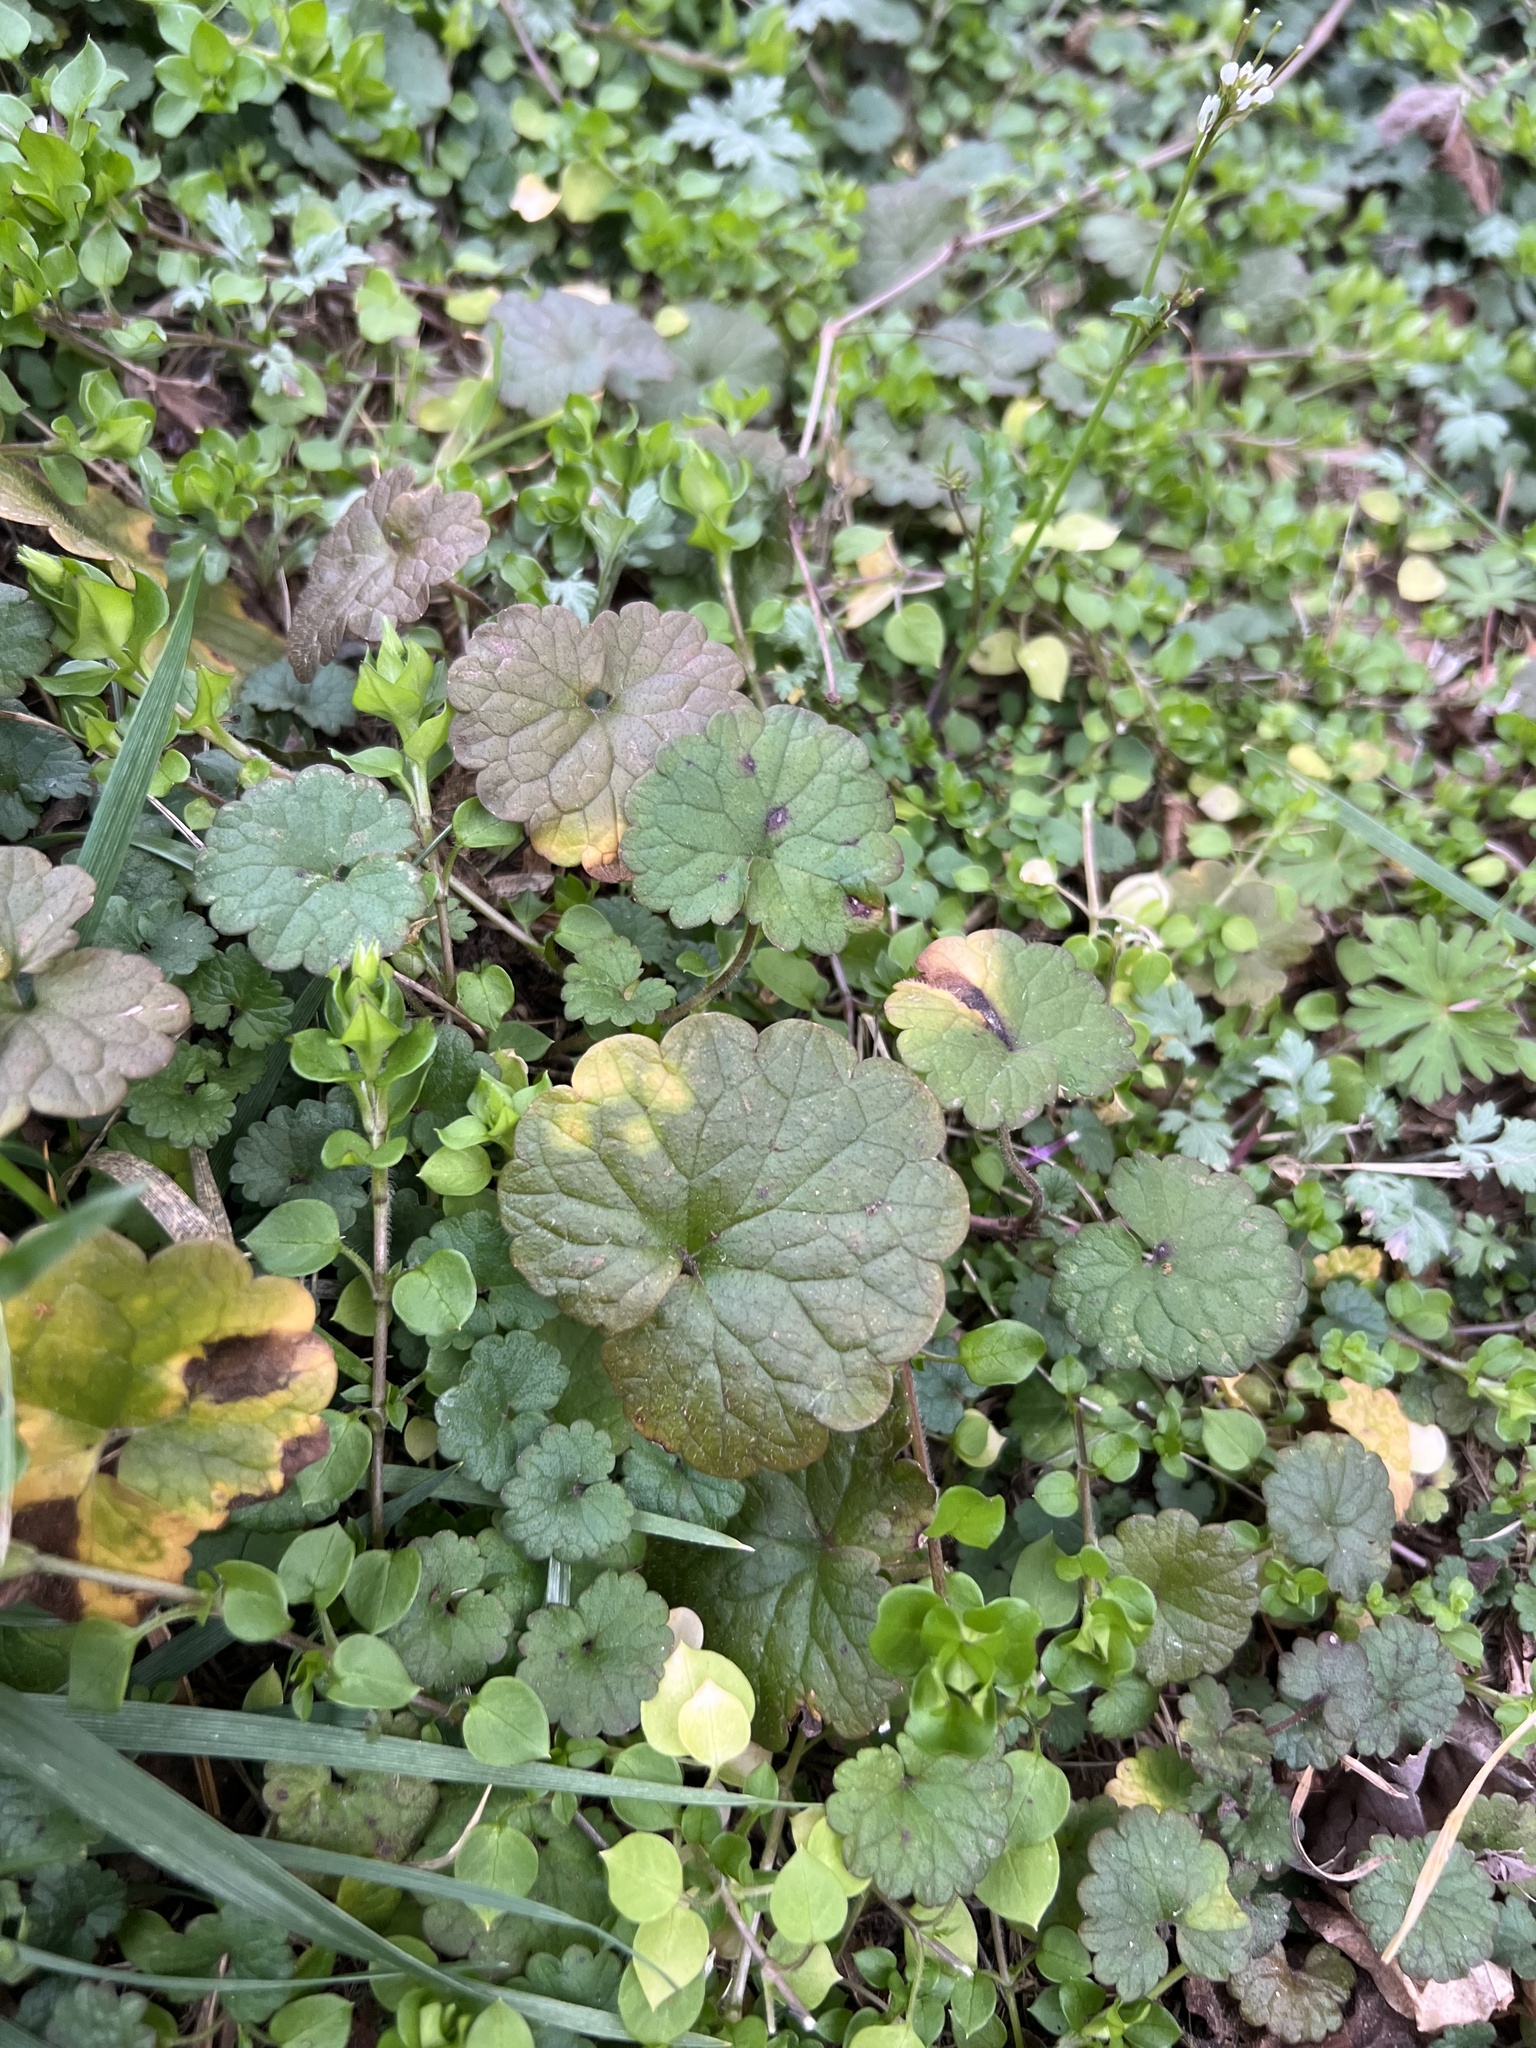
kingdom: Plantae
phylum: Tracheophyta
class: Magnoliopsida
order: Lamiales
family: Lamiaceae
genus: Glechoma
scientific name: Glechoma hederacea
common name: Ground ivy
